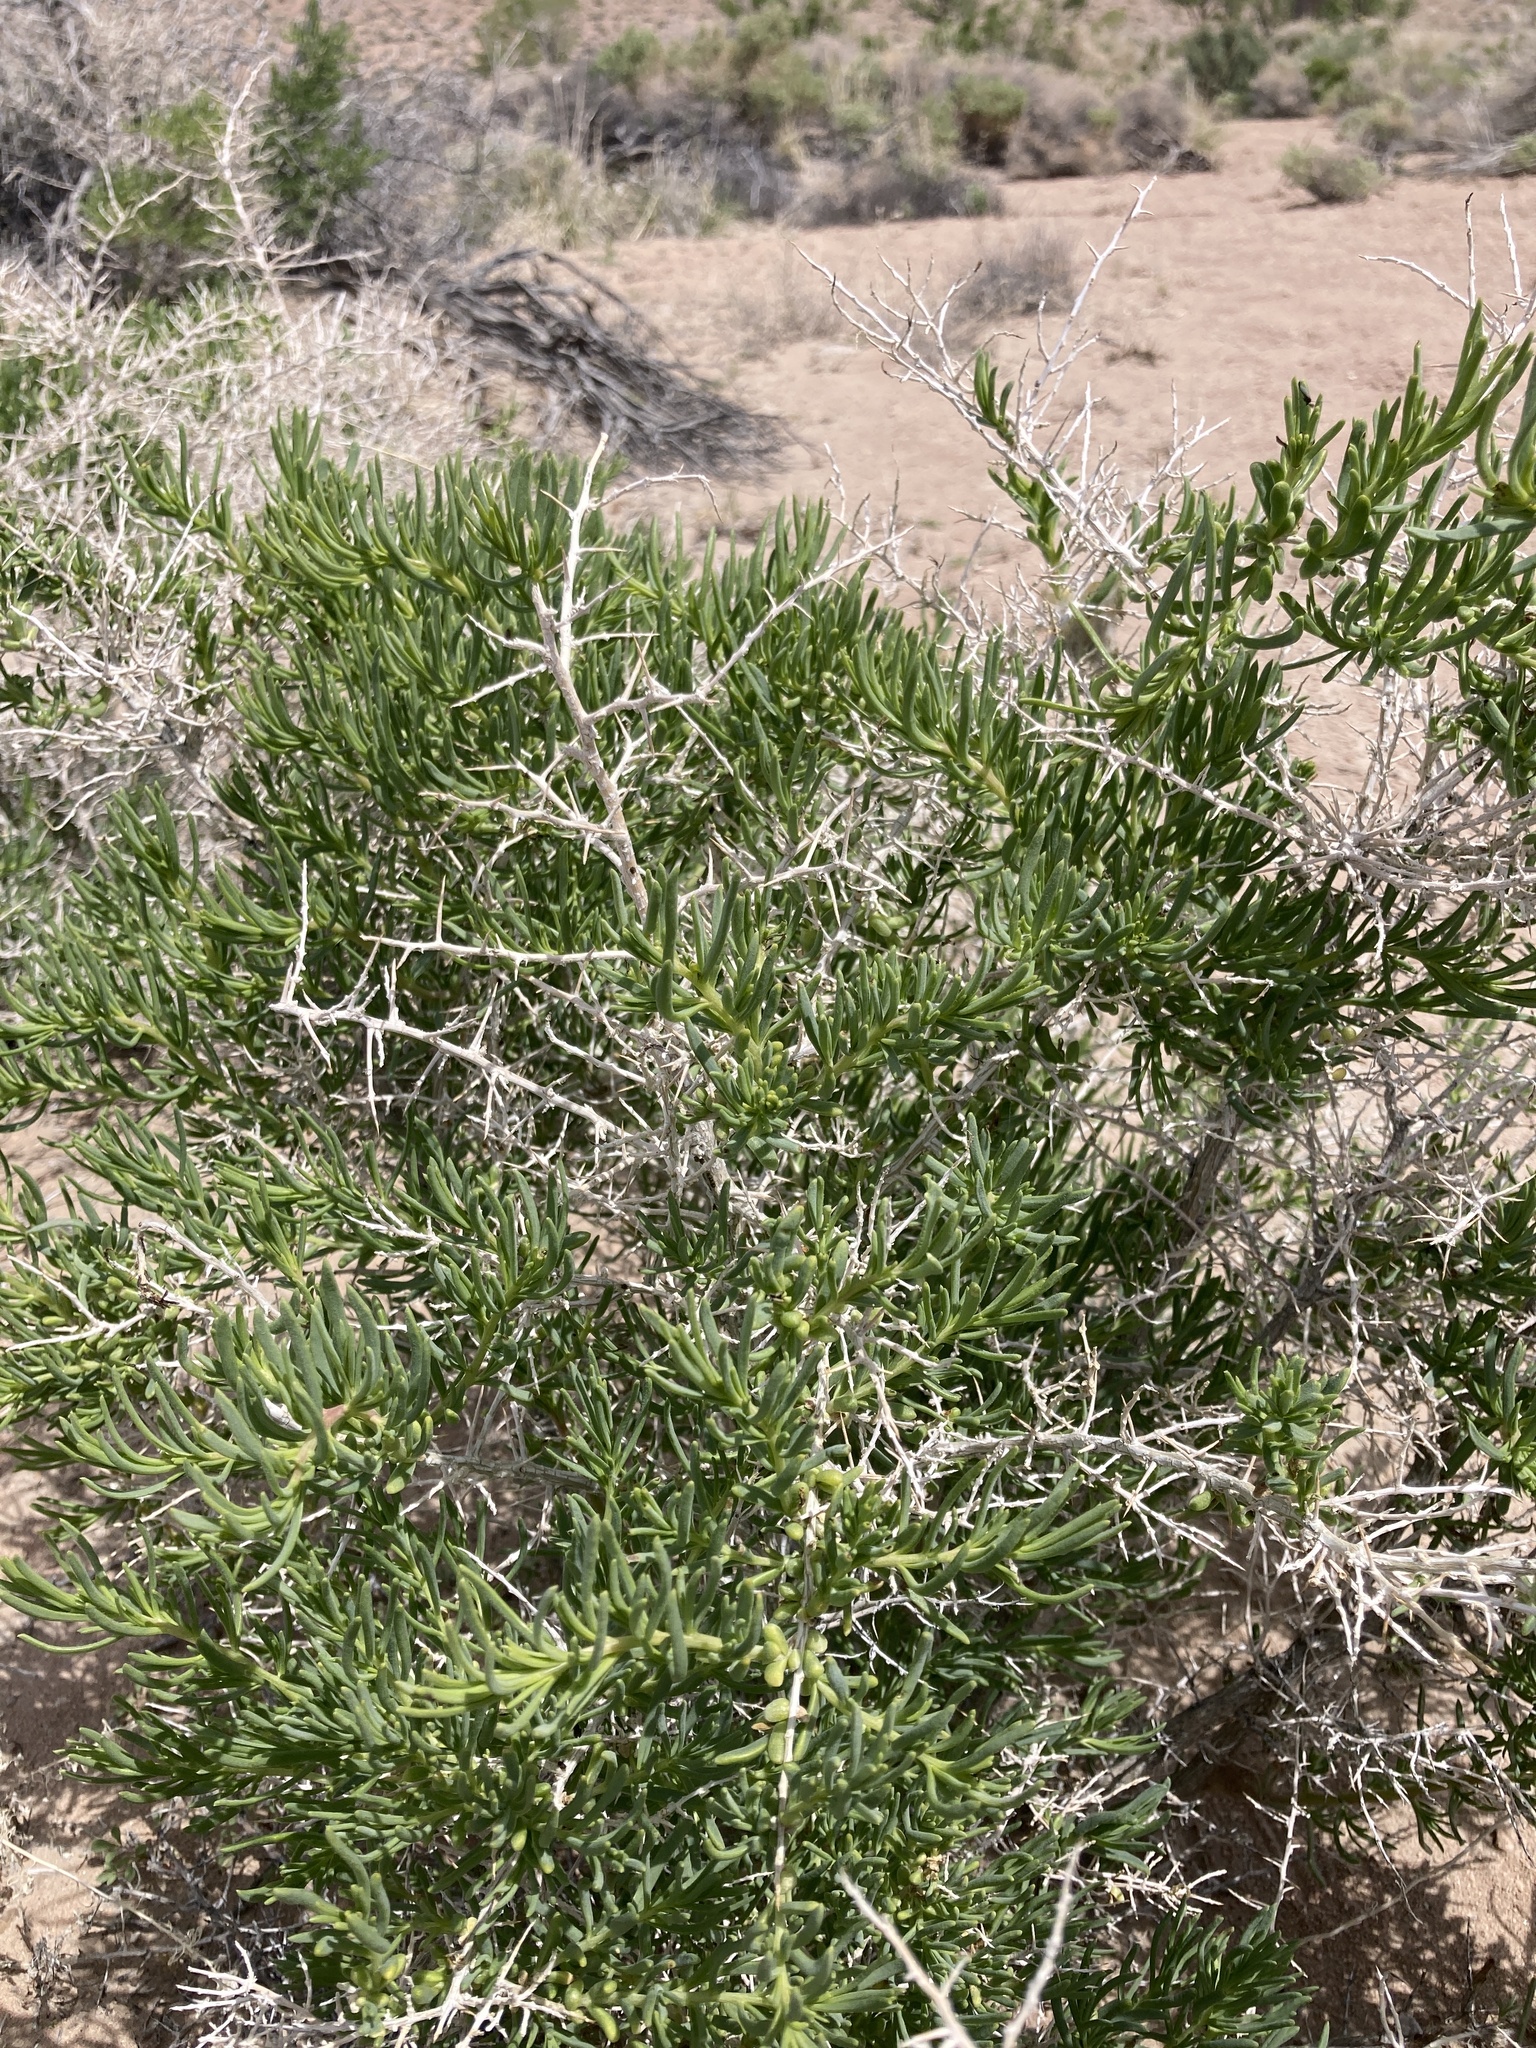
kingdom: Plantae
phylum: Tracheophyta
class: Magnoliopsida
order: Caryophyllales
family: Sarcobataceae
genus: Sarcobatus
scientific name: Sarcobatus vermiculatus
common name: Greasewood
